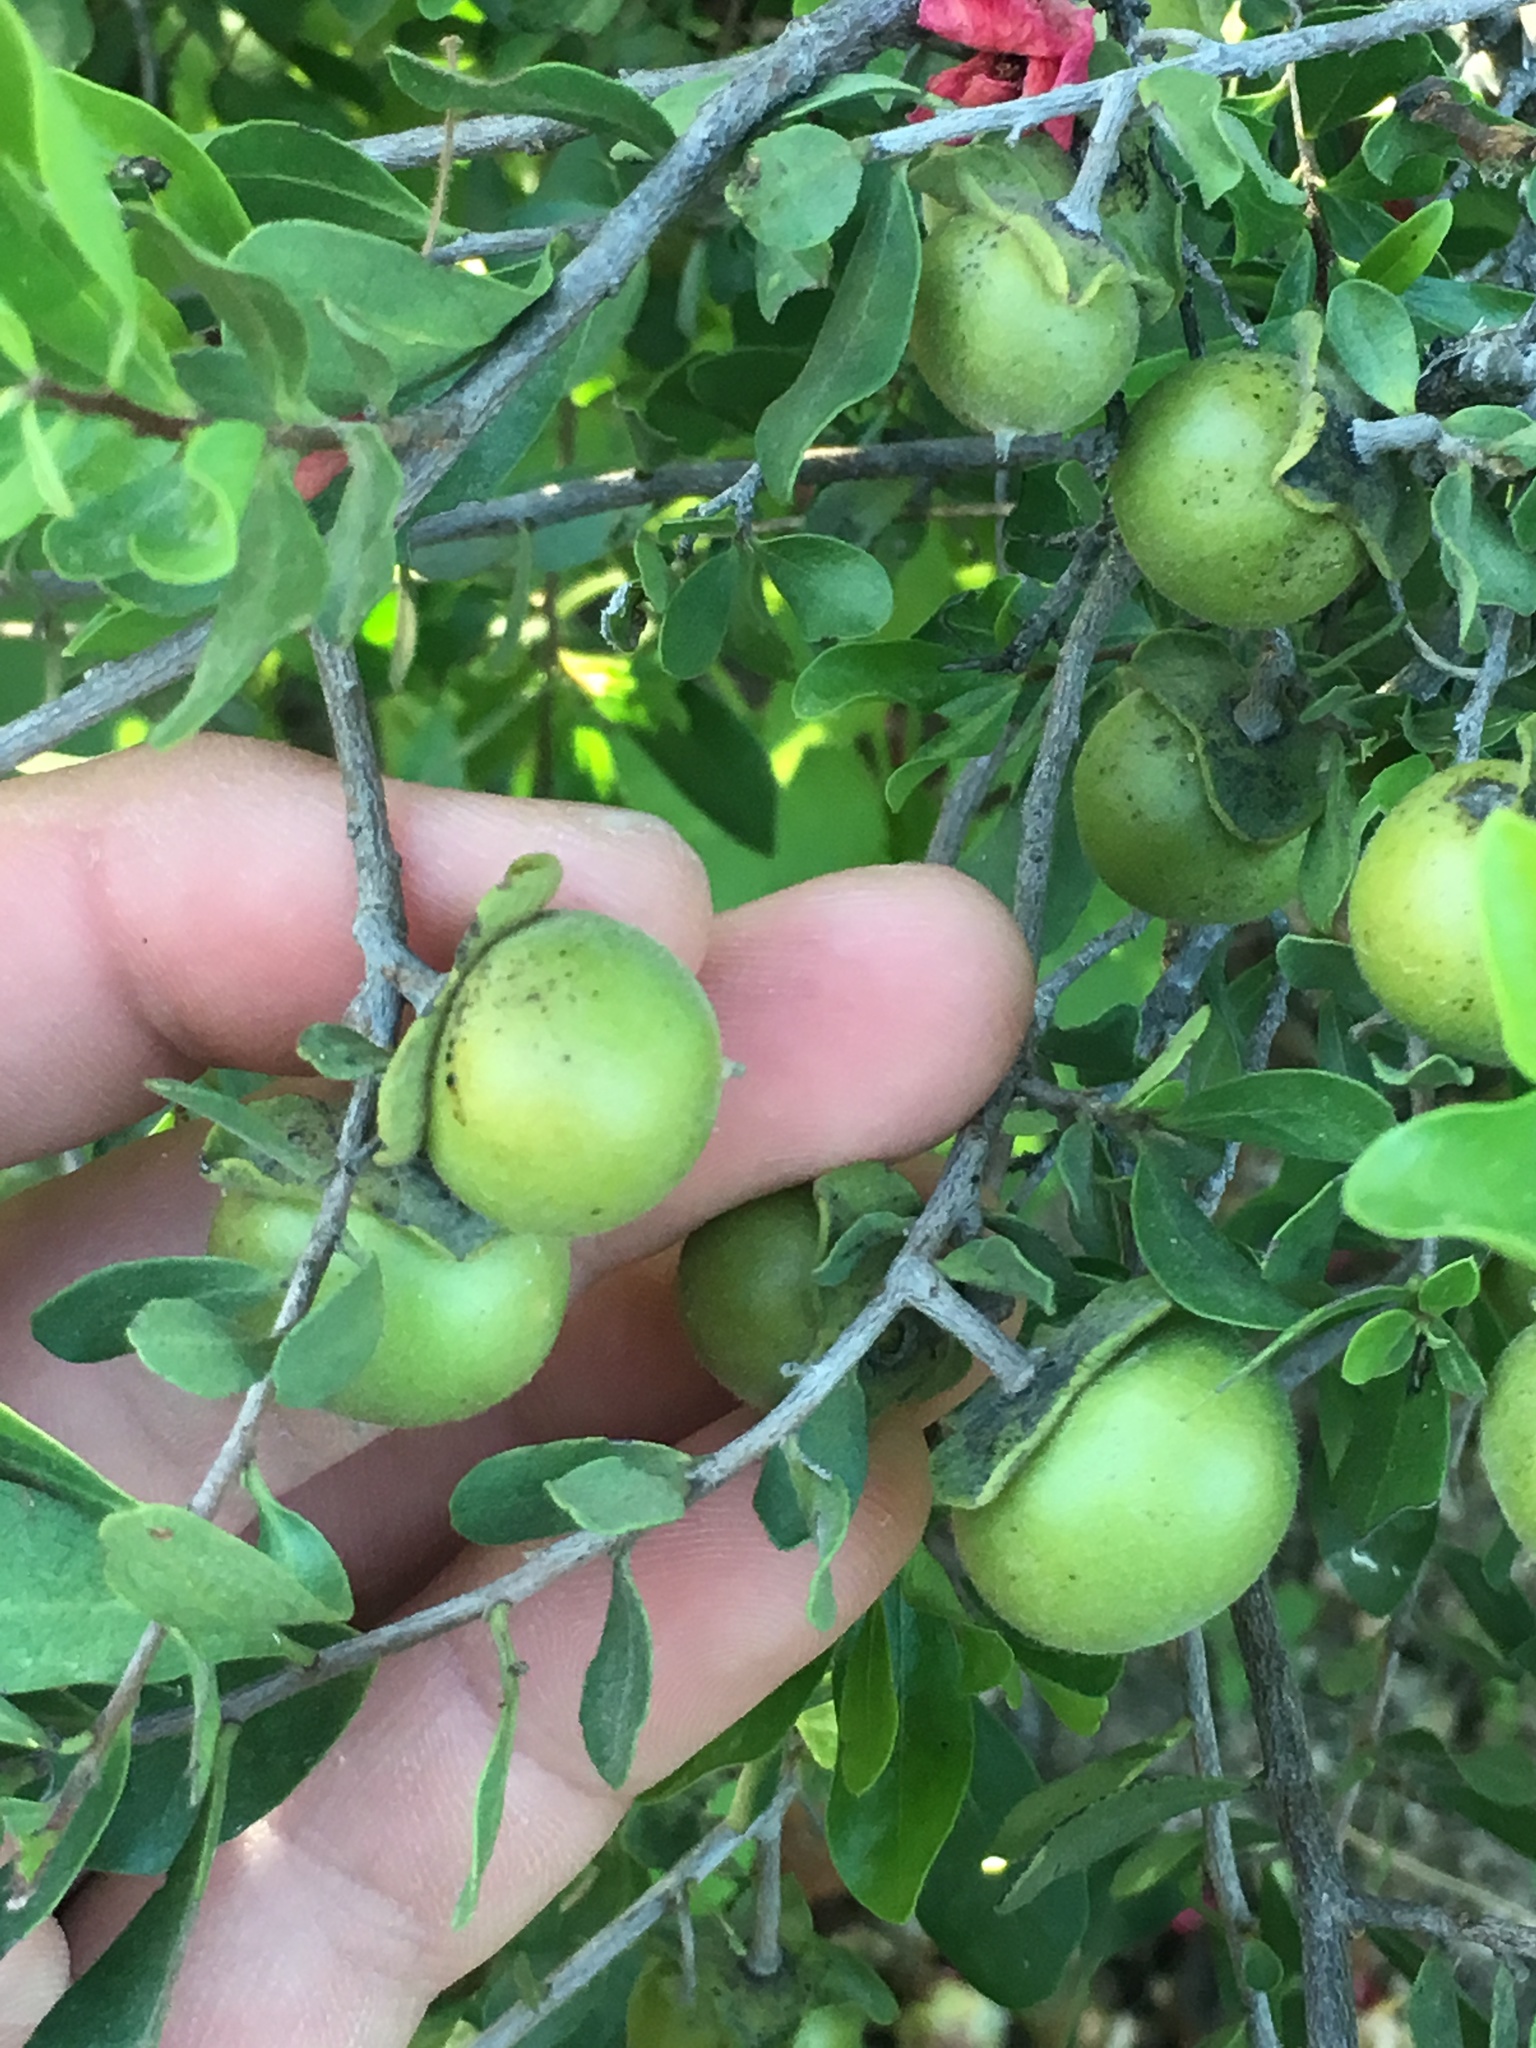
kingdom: Plantae
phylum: Tracheophyta
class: Magnoliopsida
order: Ericales
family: Ebenaceae
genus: Diospyros
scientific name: Diospyros intricata
